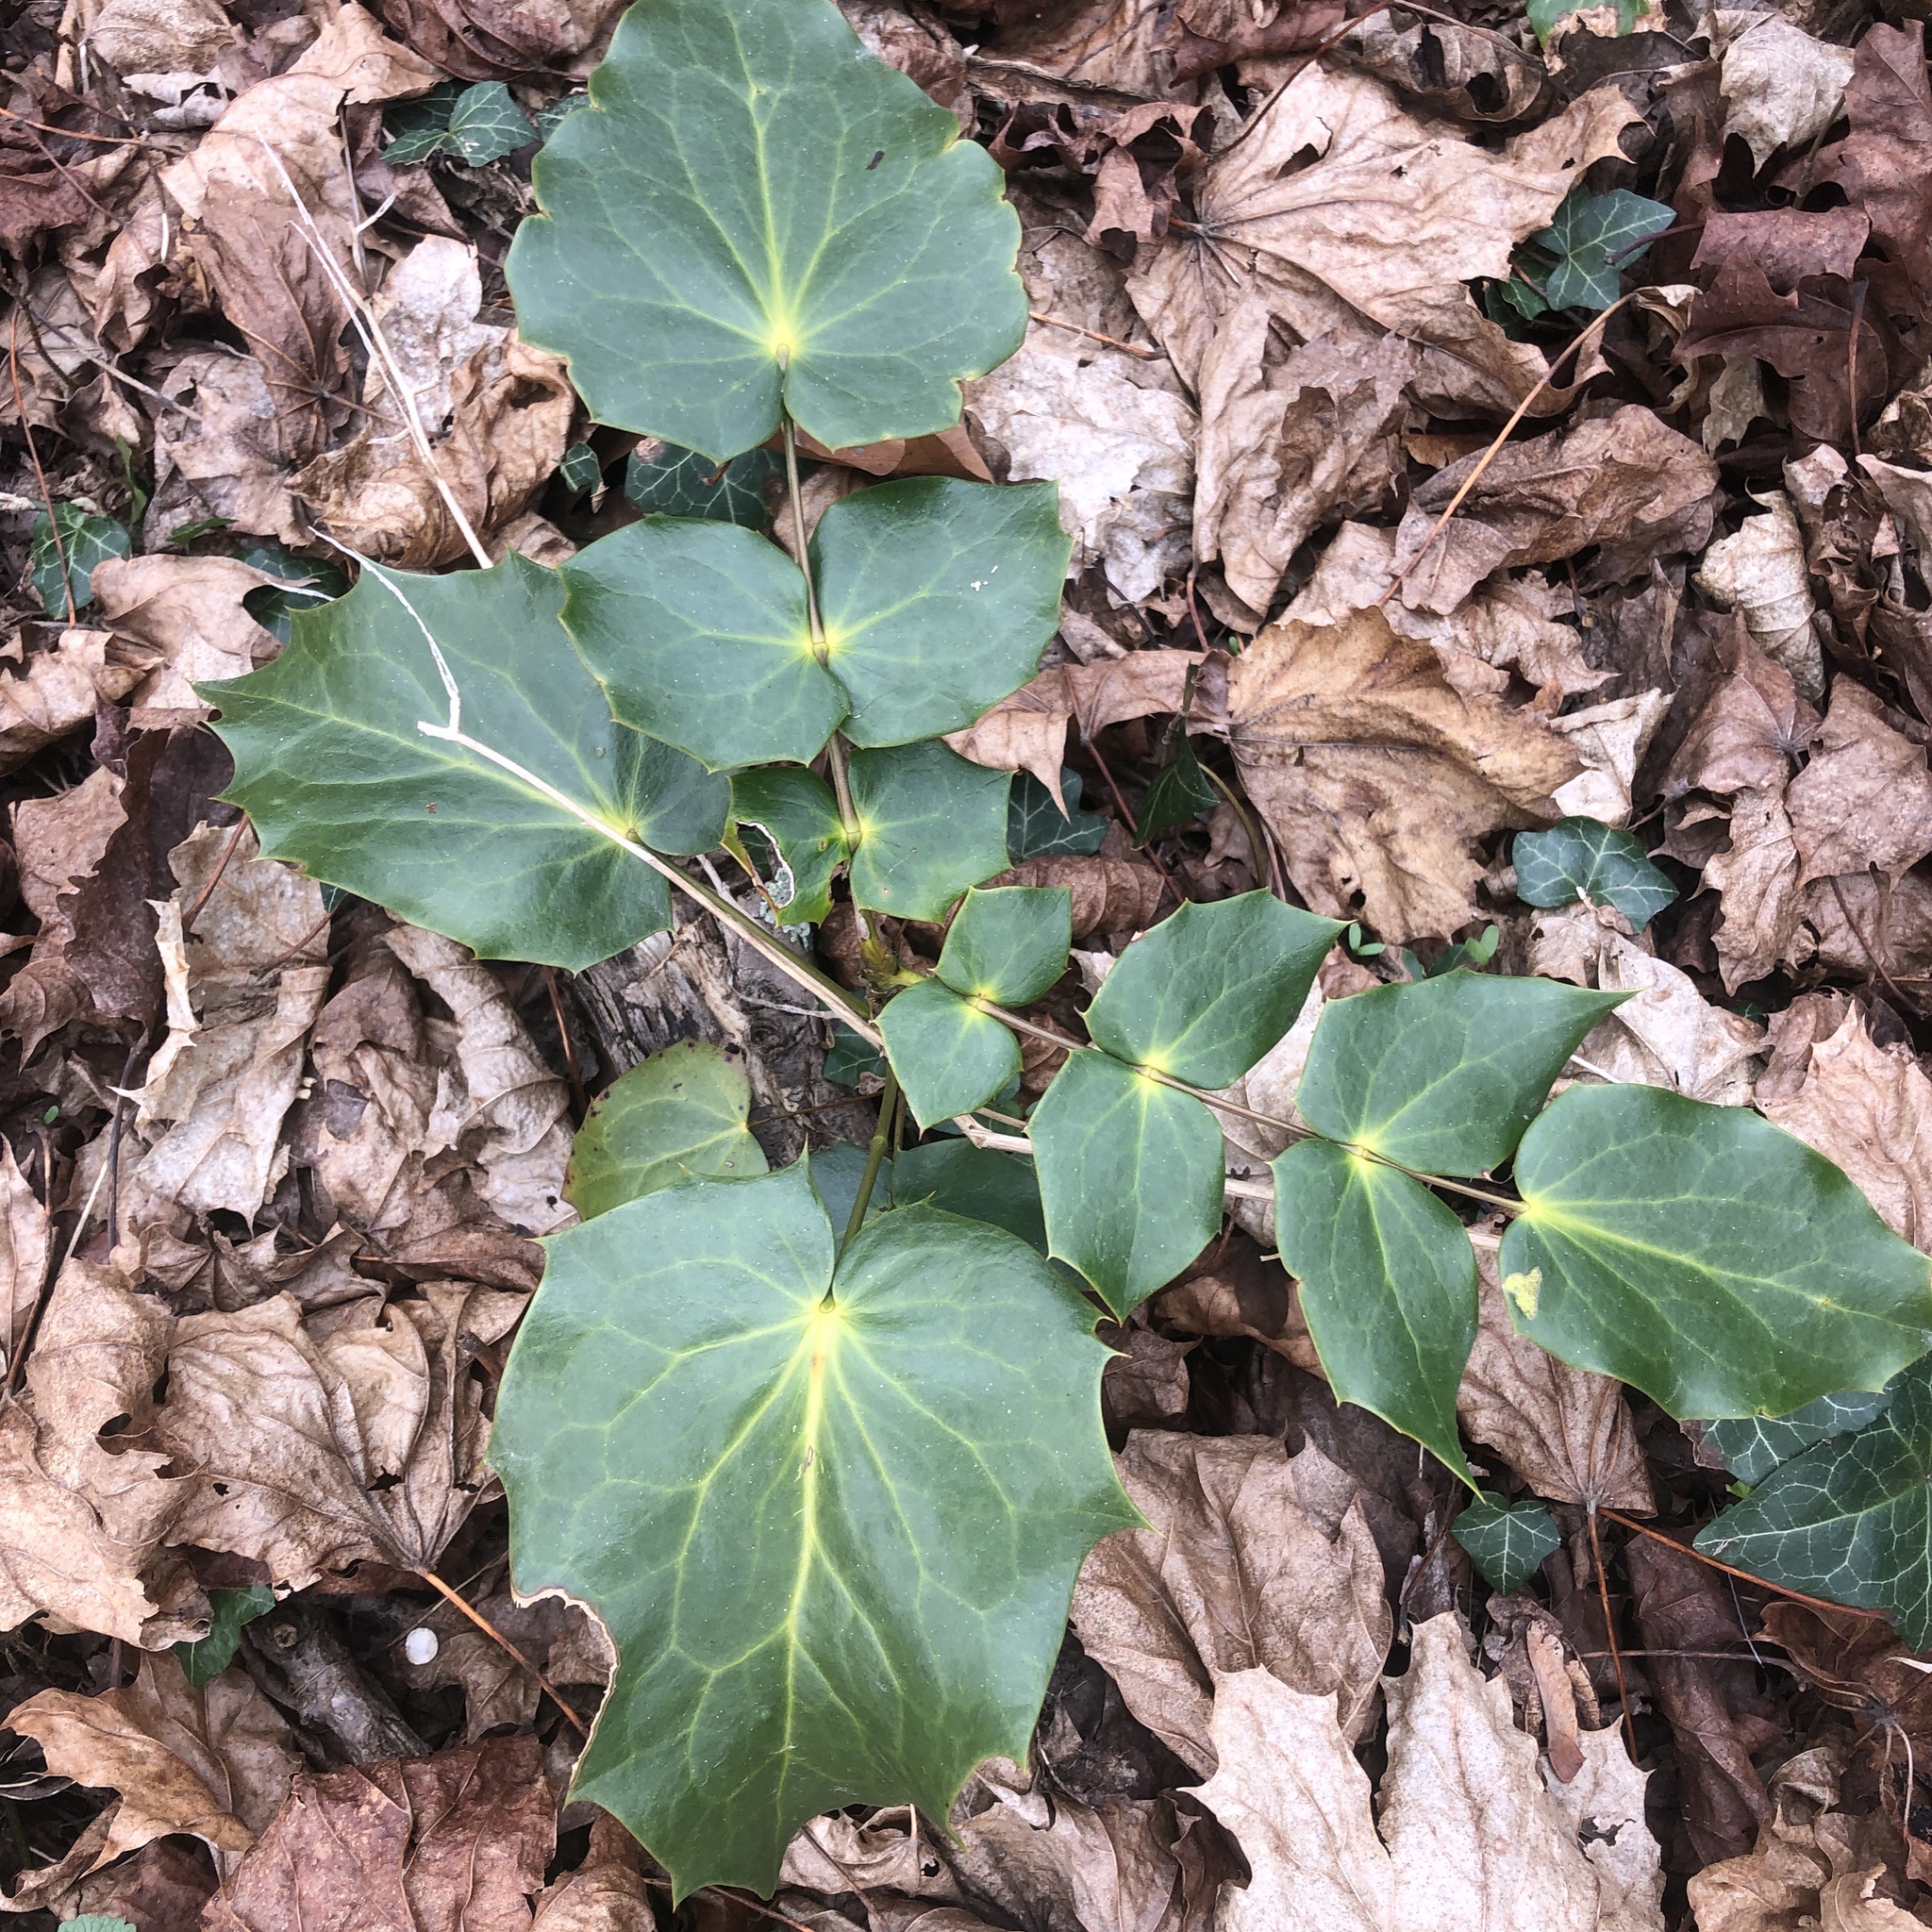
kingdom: Plantae
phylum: Tracheophyta
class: Magnoliopsida
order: Ranunculales
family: Berberidaceae
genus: Mahonia
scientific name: Mahonia bealei
